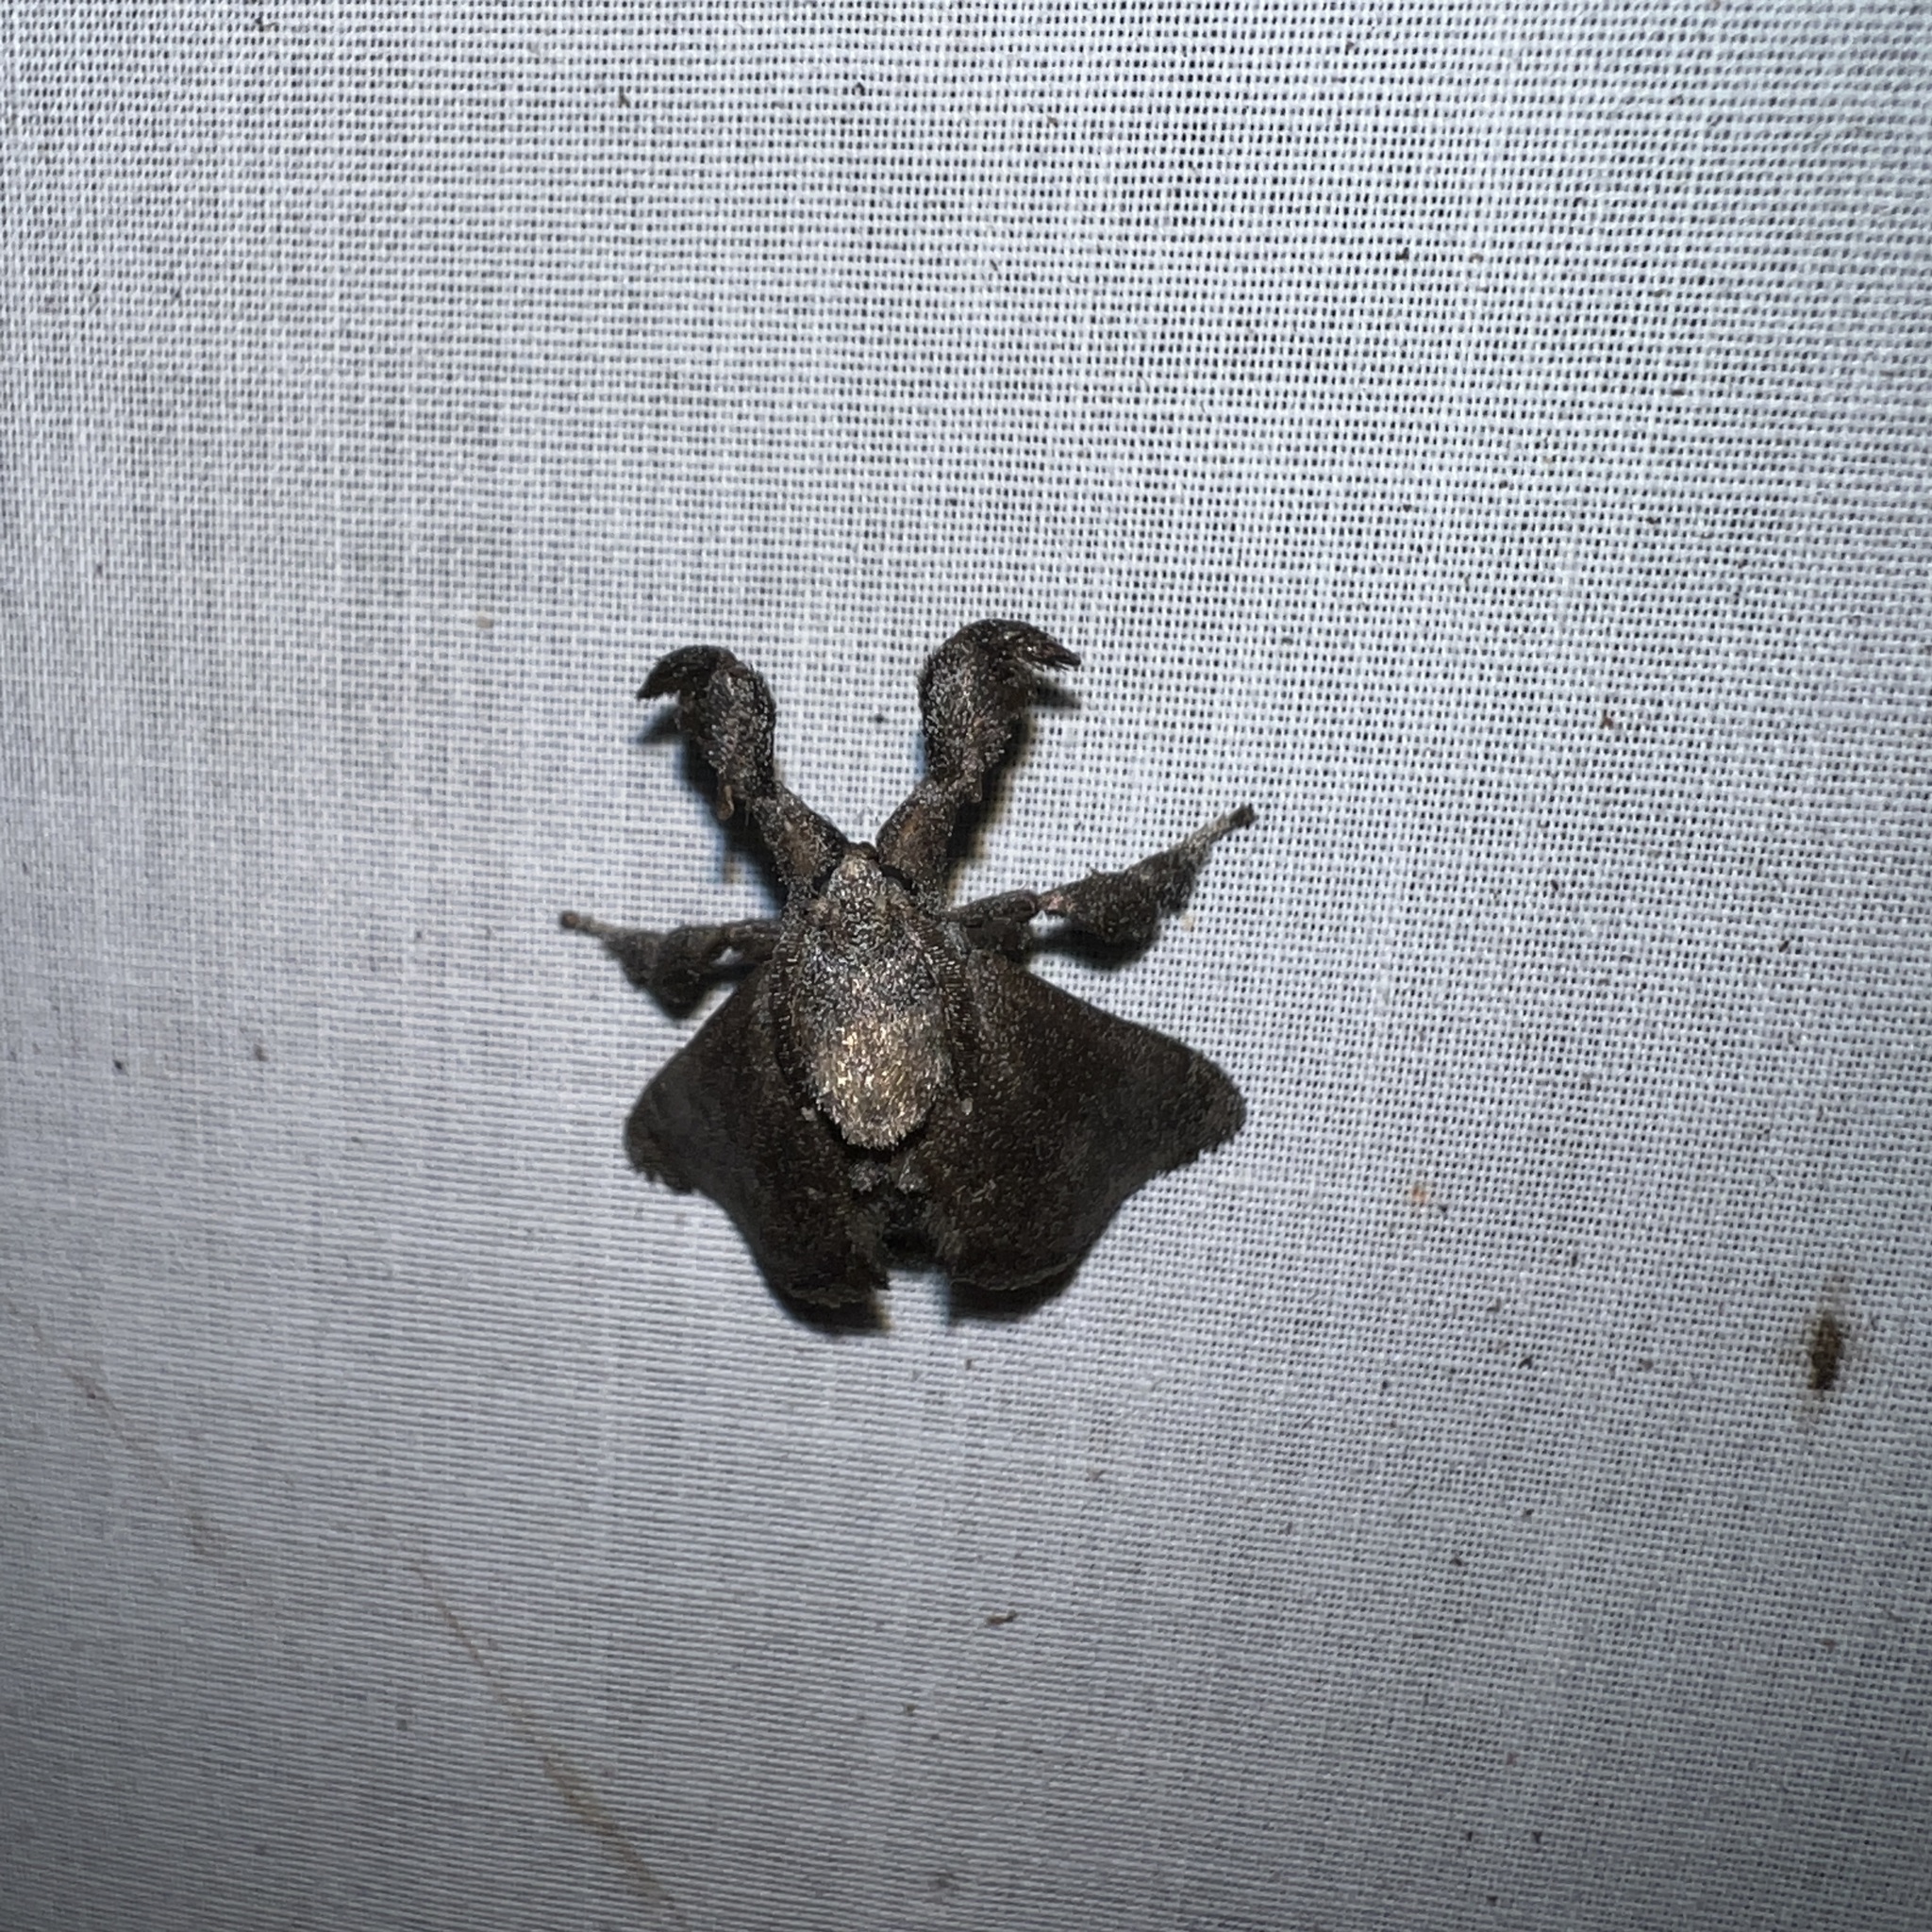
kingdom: Animalia
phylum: Arthropoda
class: Insecta
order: Lepidoptera
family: Limacodidae
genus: Perola
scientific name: Perola repetita
